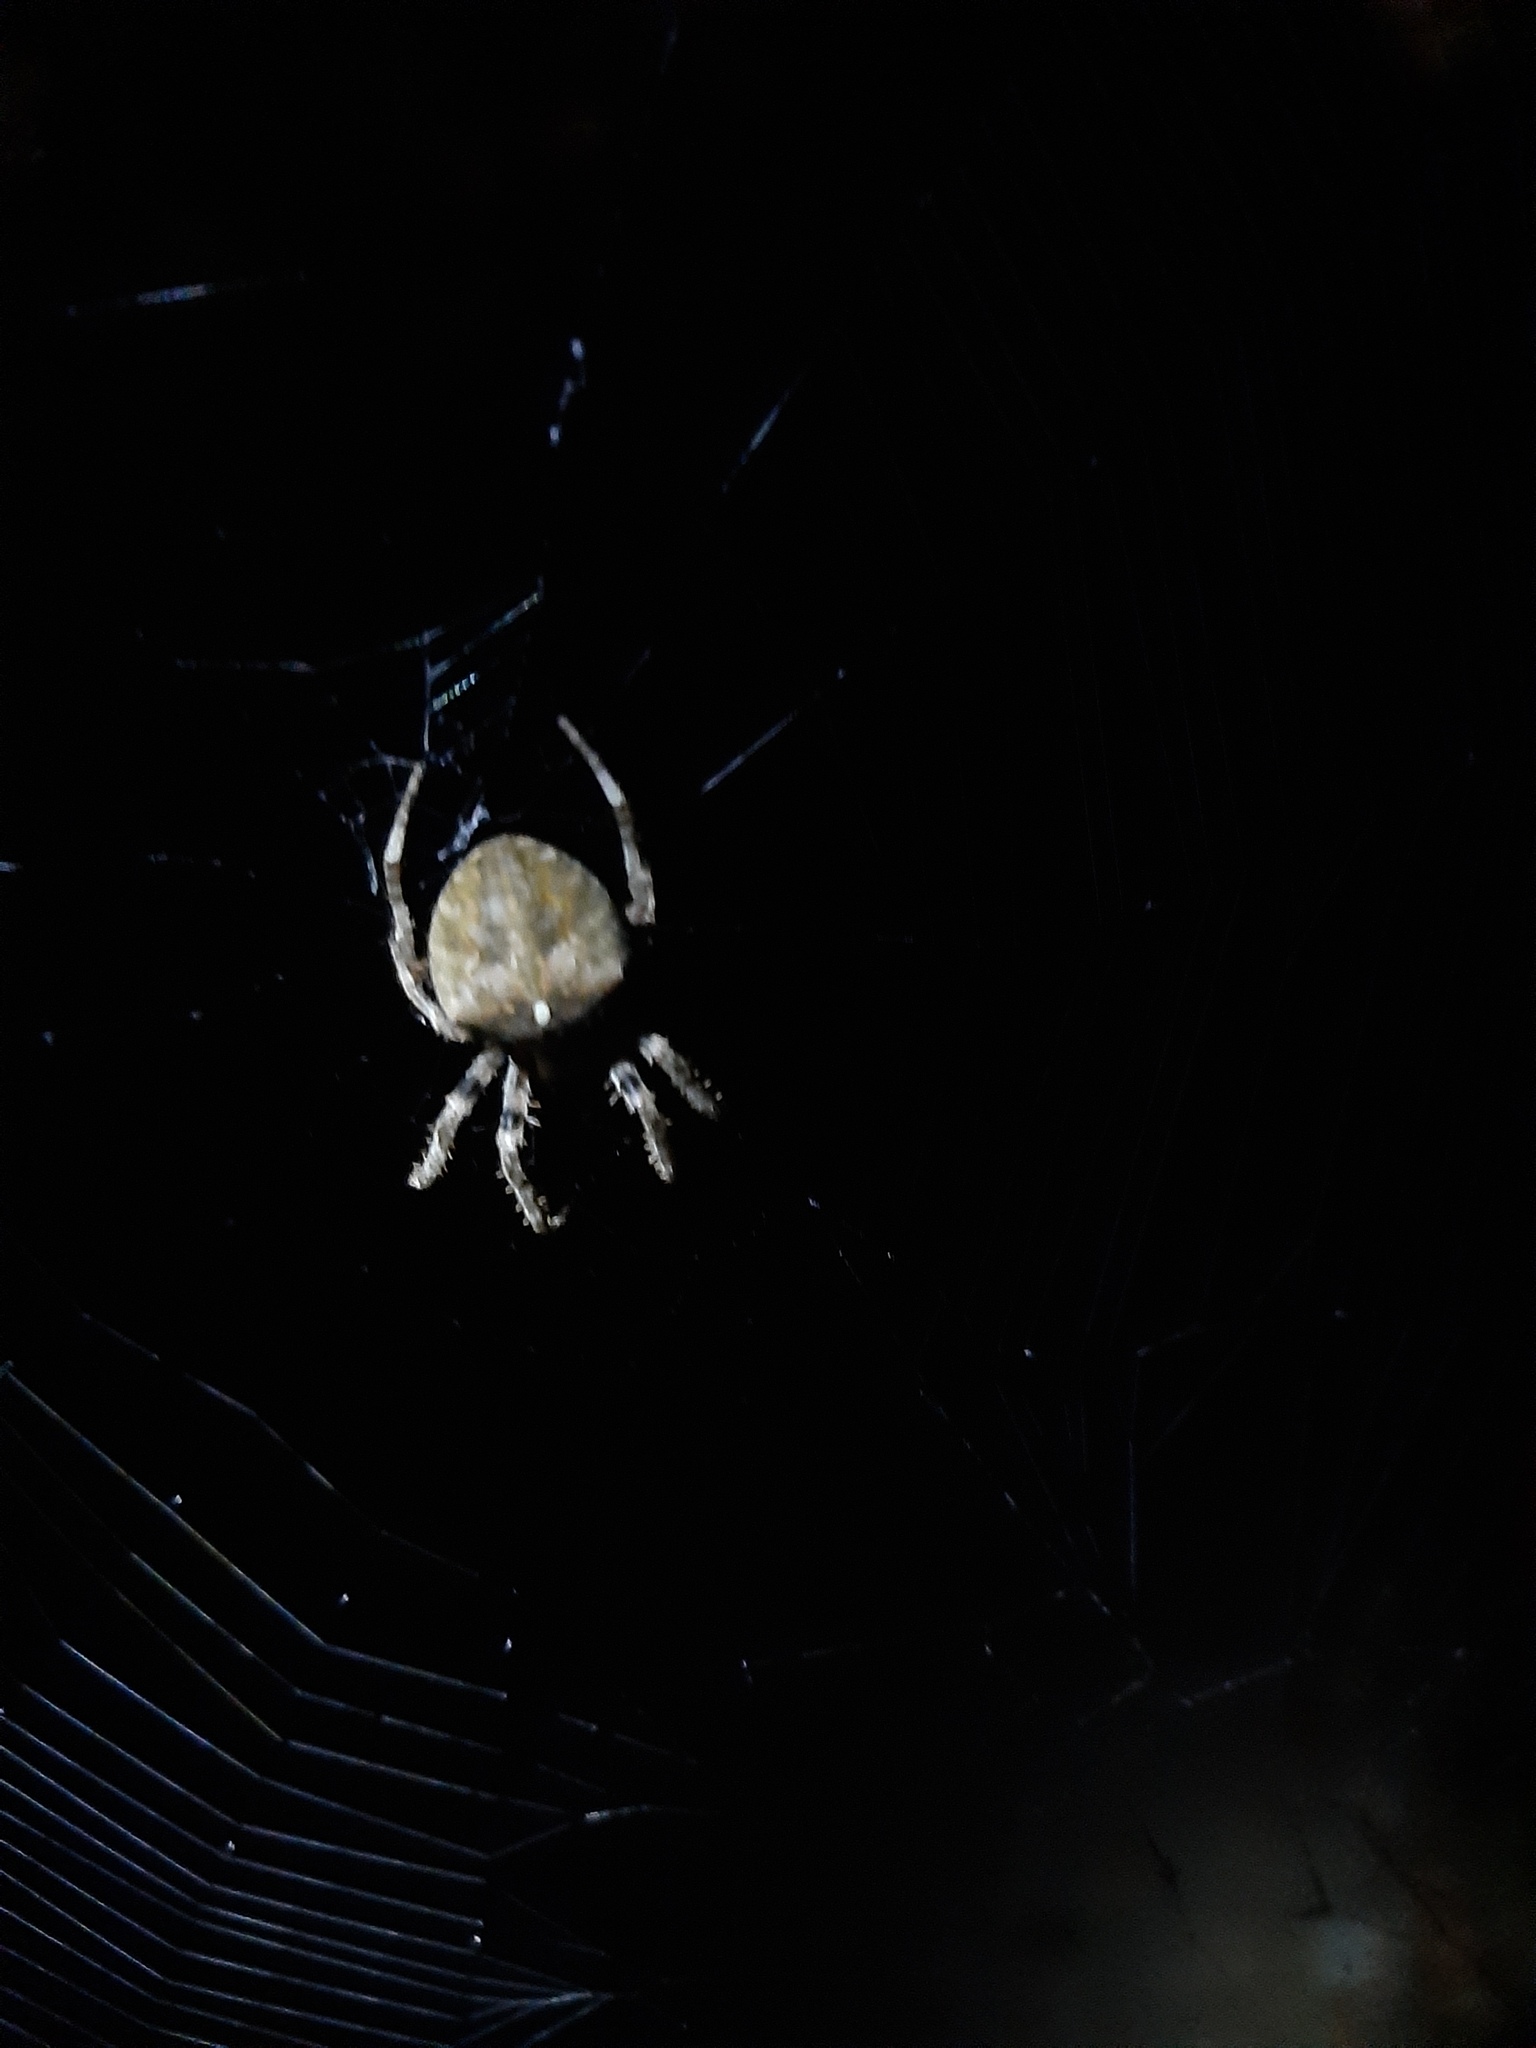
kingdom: Animalia
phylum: Arthropoda
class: Arachnida
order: Araneae
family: Araneidae
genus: Araneus
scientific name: Araneus angulatus
